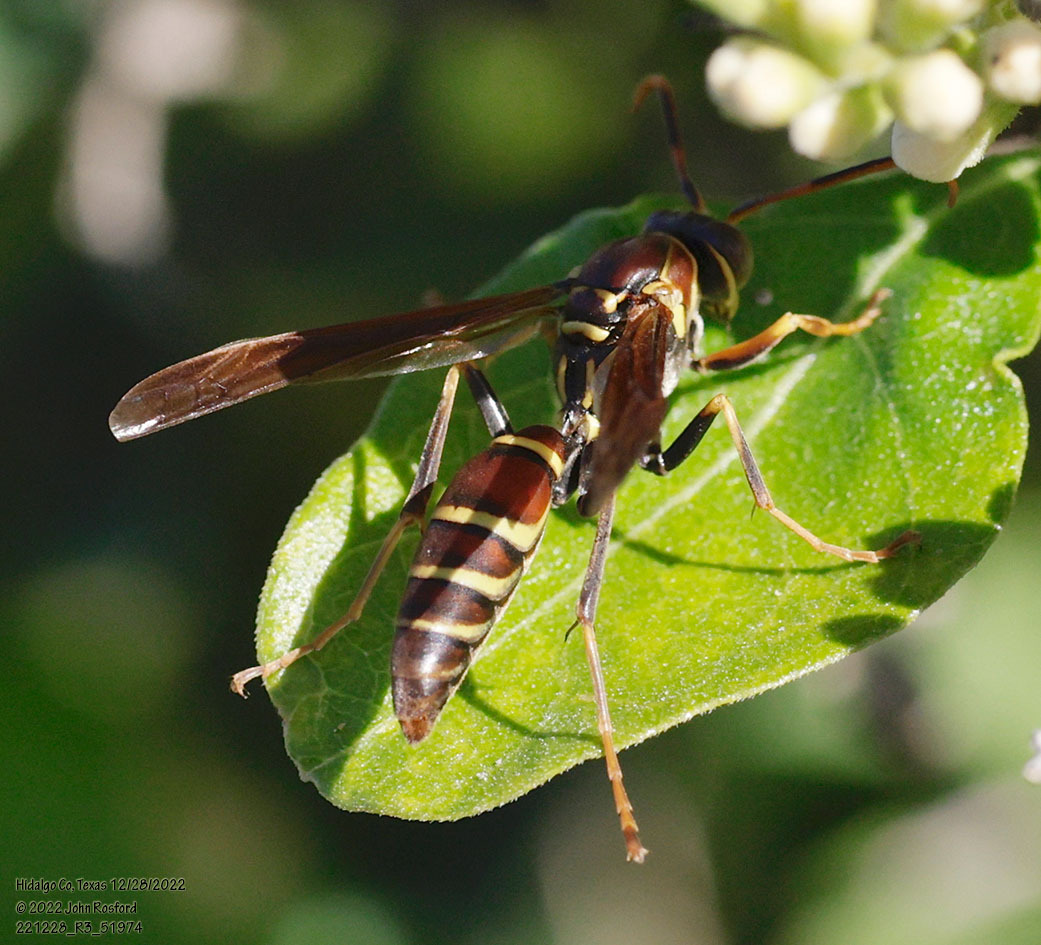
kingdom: Animalia
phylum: Arthropoda
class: Insecta
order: Hymenoptera
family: Eumenidae
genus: Polistes
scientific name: Polistes instabilis
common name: Unstable paper wasp
